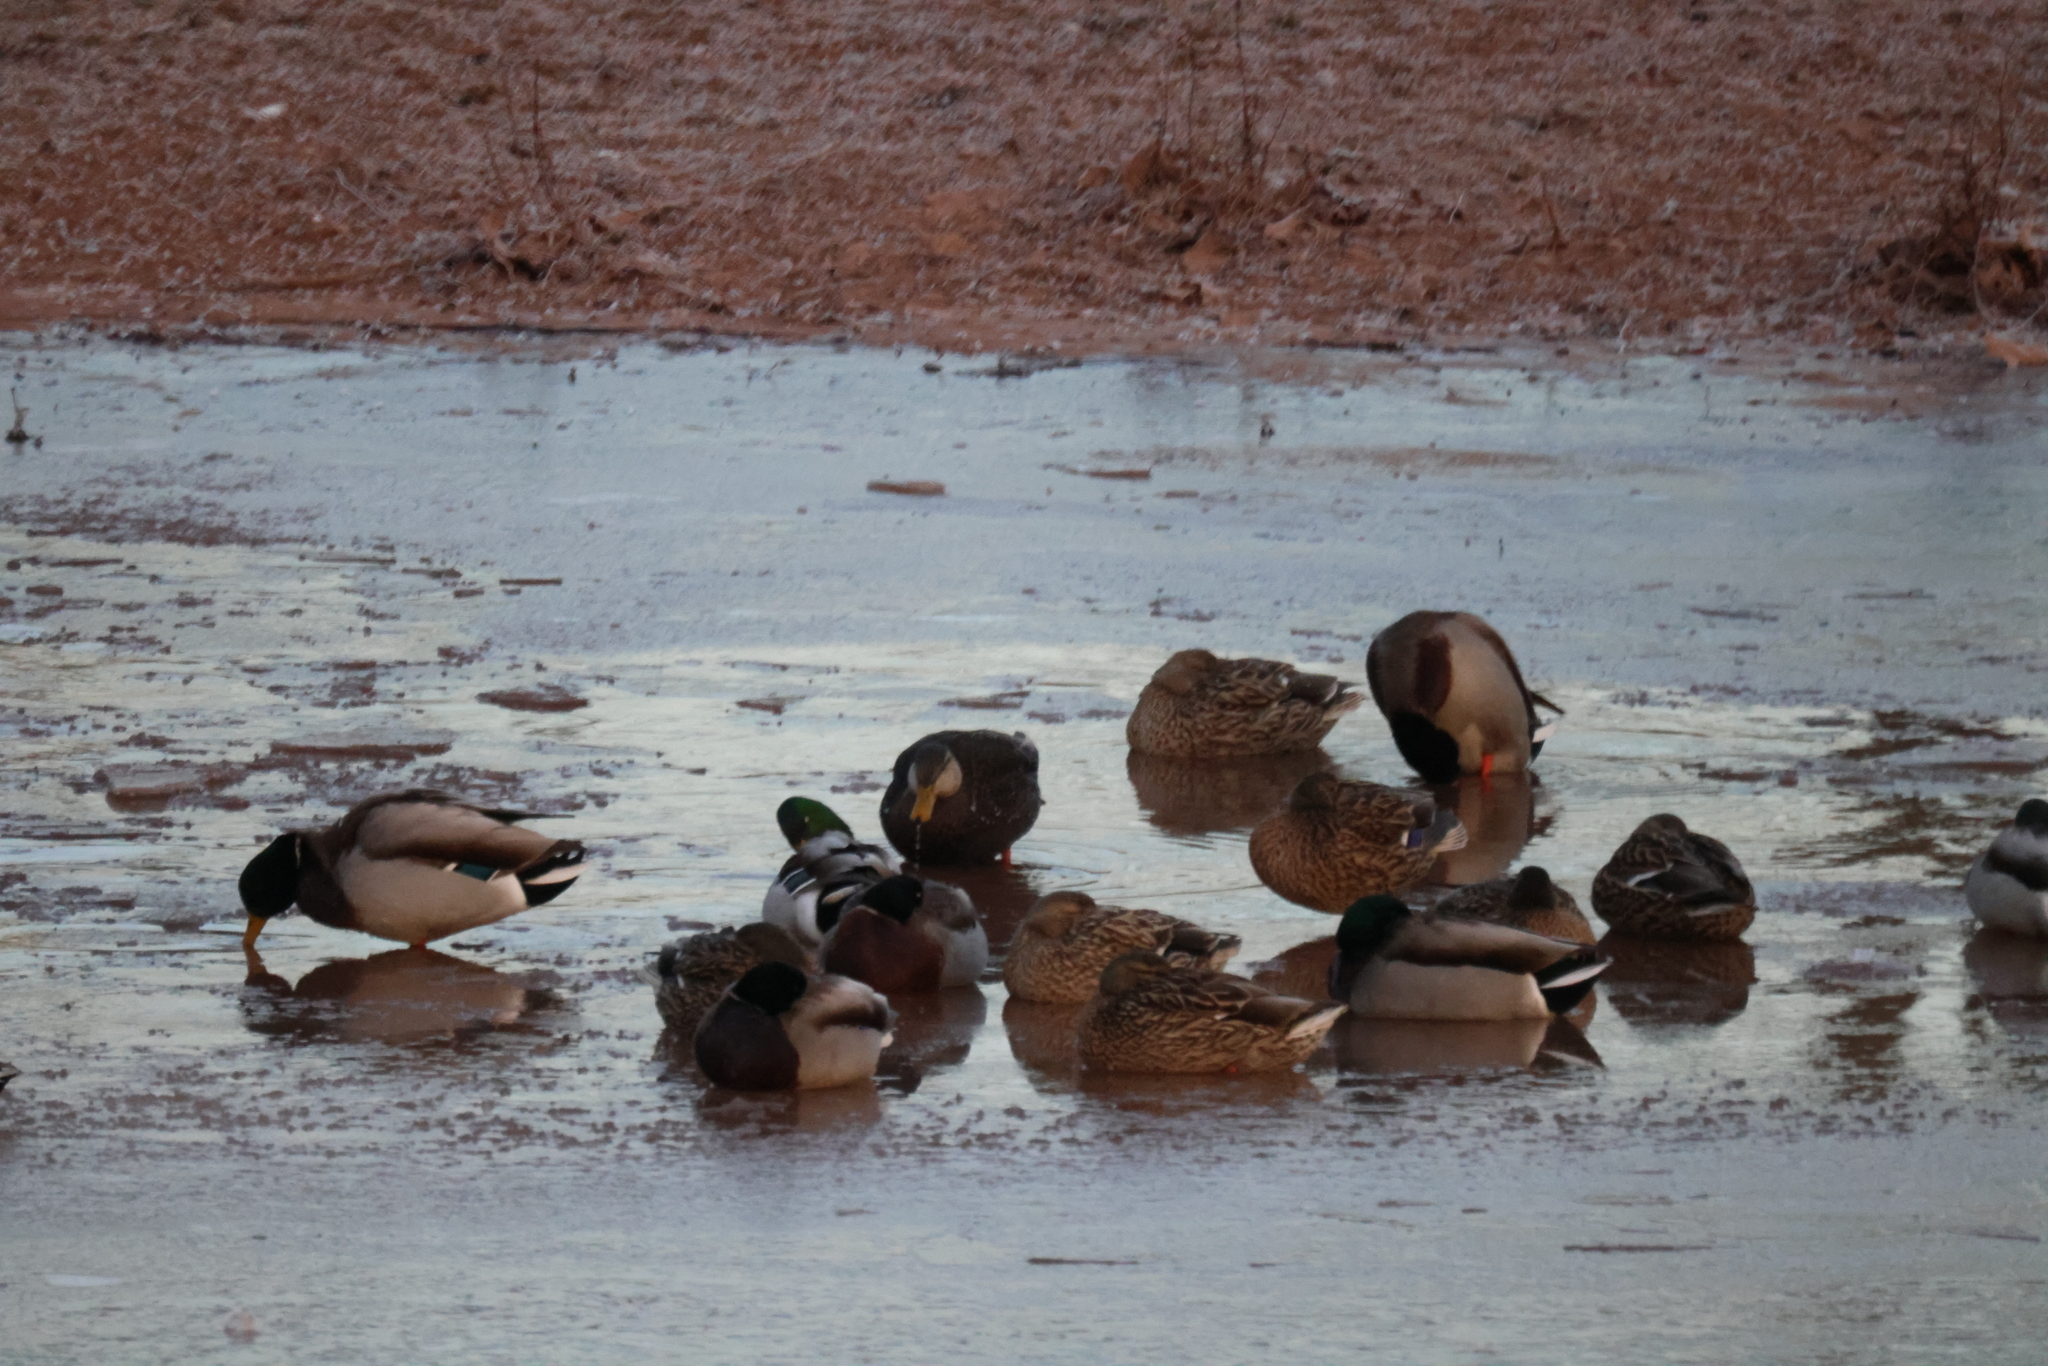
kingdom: Animalia
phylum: Chordata
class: Aves
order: Anseriformes
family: Anatidae
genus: Anas
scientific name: Anas platyrhynchos
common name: Mallard
